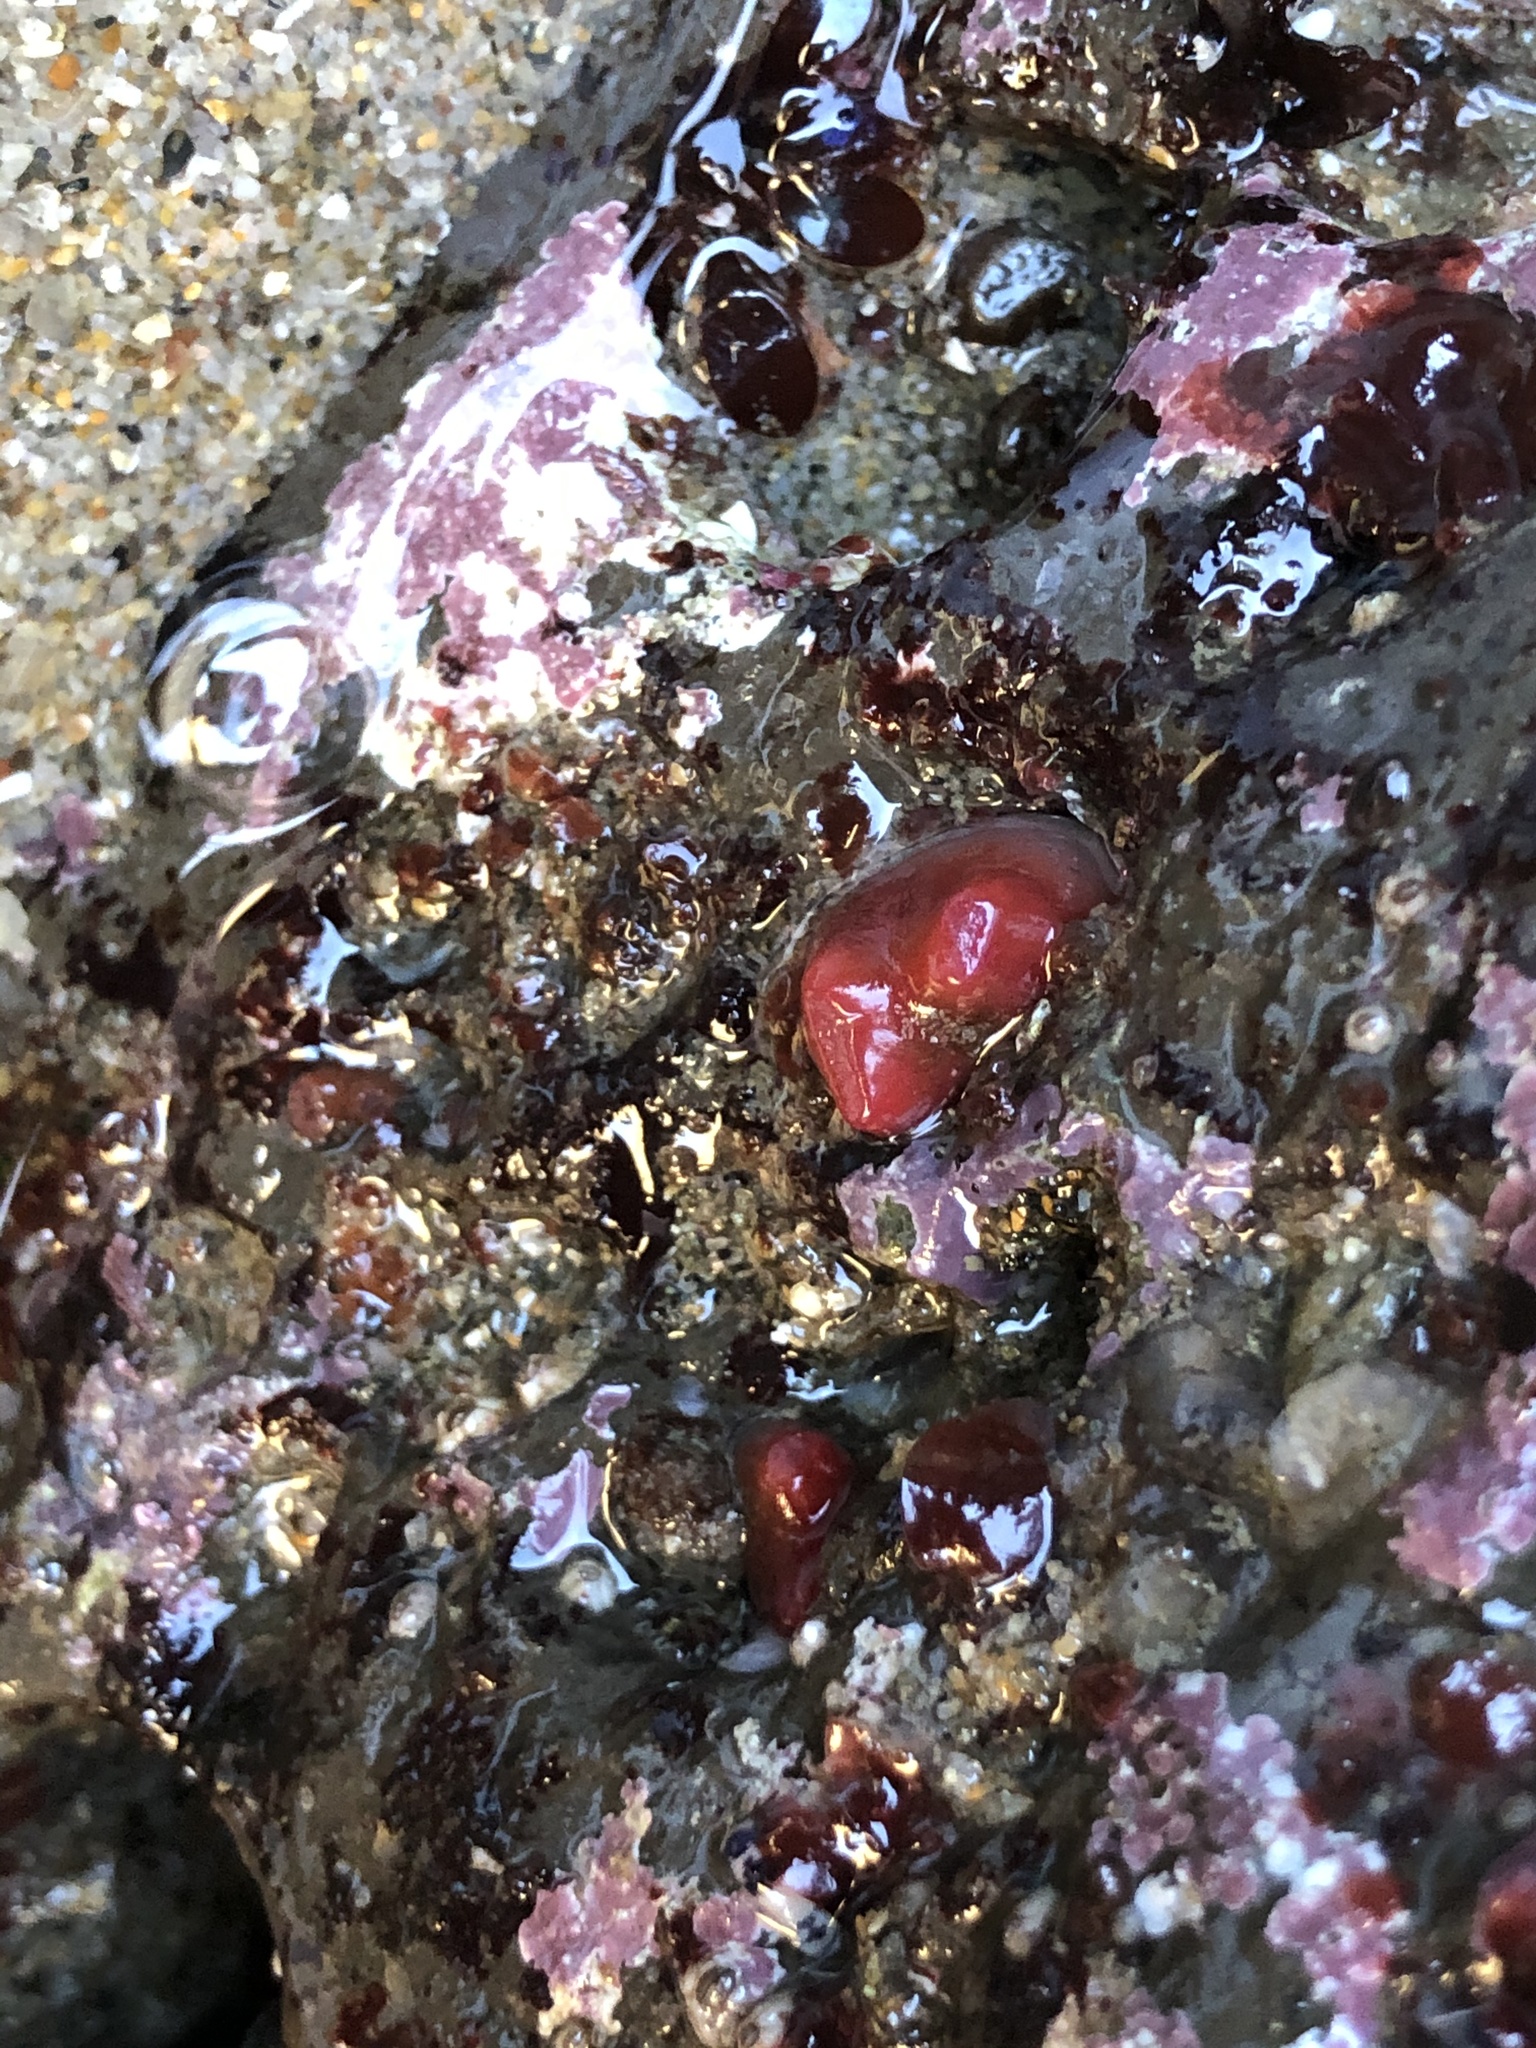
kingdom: Animalia
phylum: Mollusca
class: Bivalvia
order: Adapedonta
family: Hiatellidae
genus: Hiatella
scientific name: Hiatella arctica
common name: Arctic hiatella
